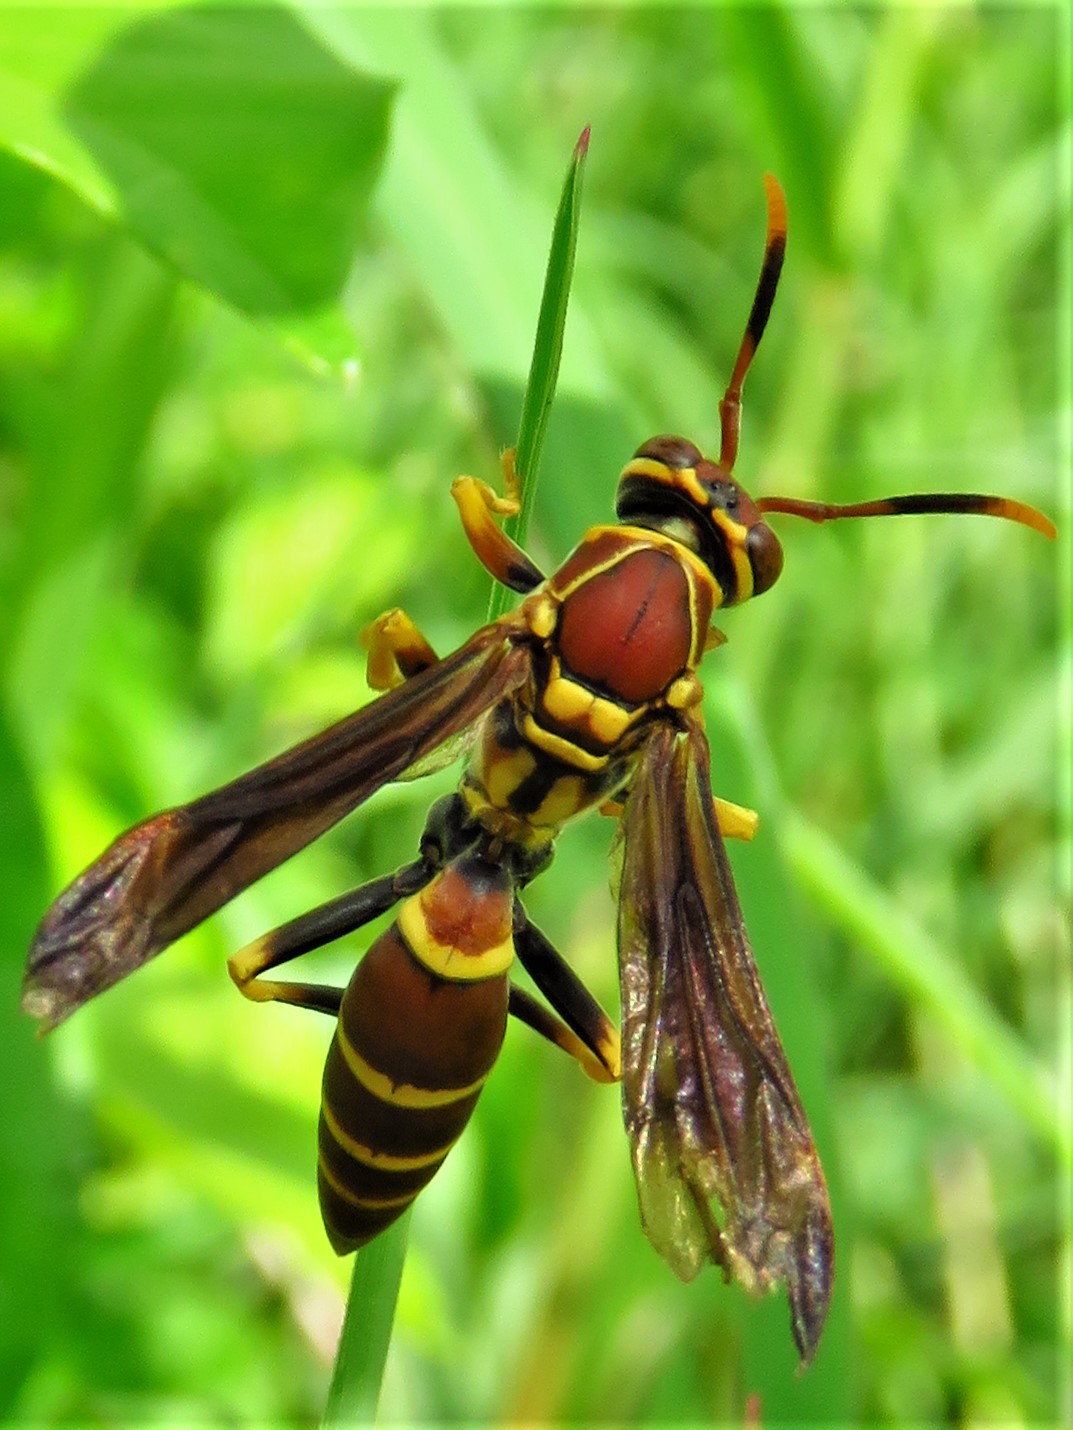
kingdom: Animalia
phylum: Arthropoda
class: Insecta
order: Hymenoptera
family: Eumenidae
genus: Polistes
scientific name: Polistes instabilis
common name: Unstable paper wasp
